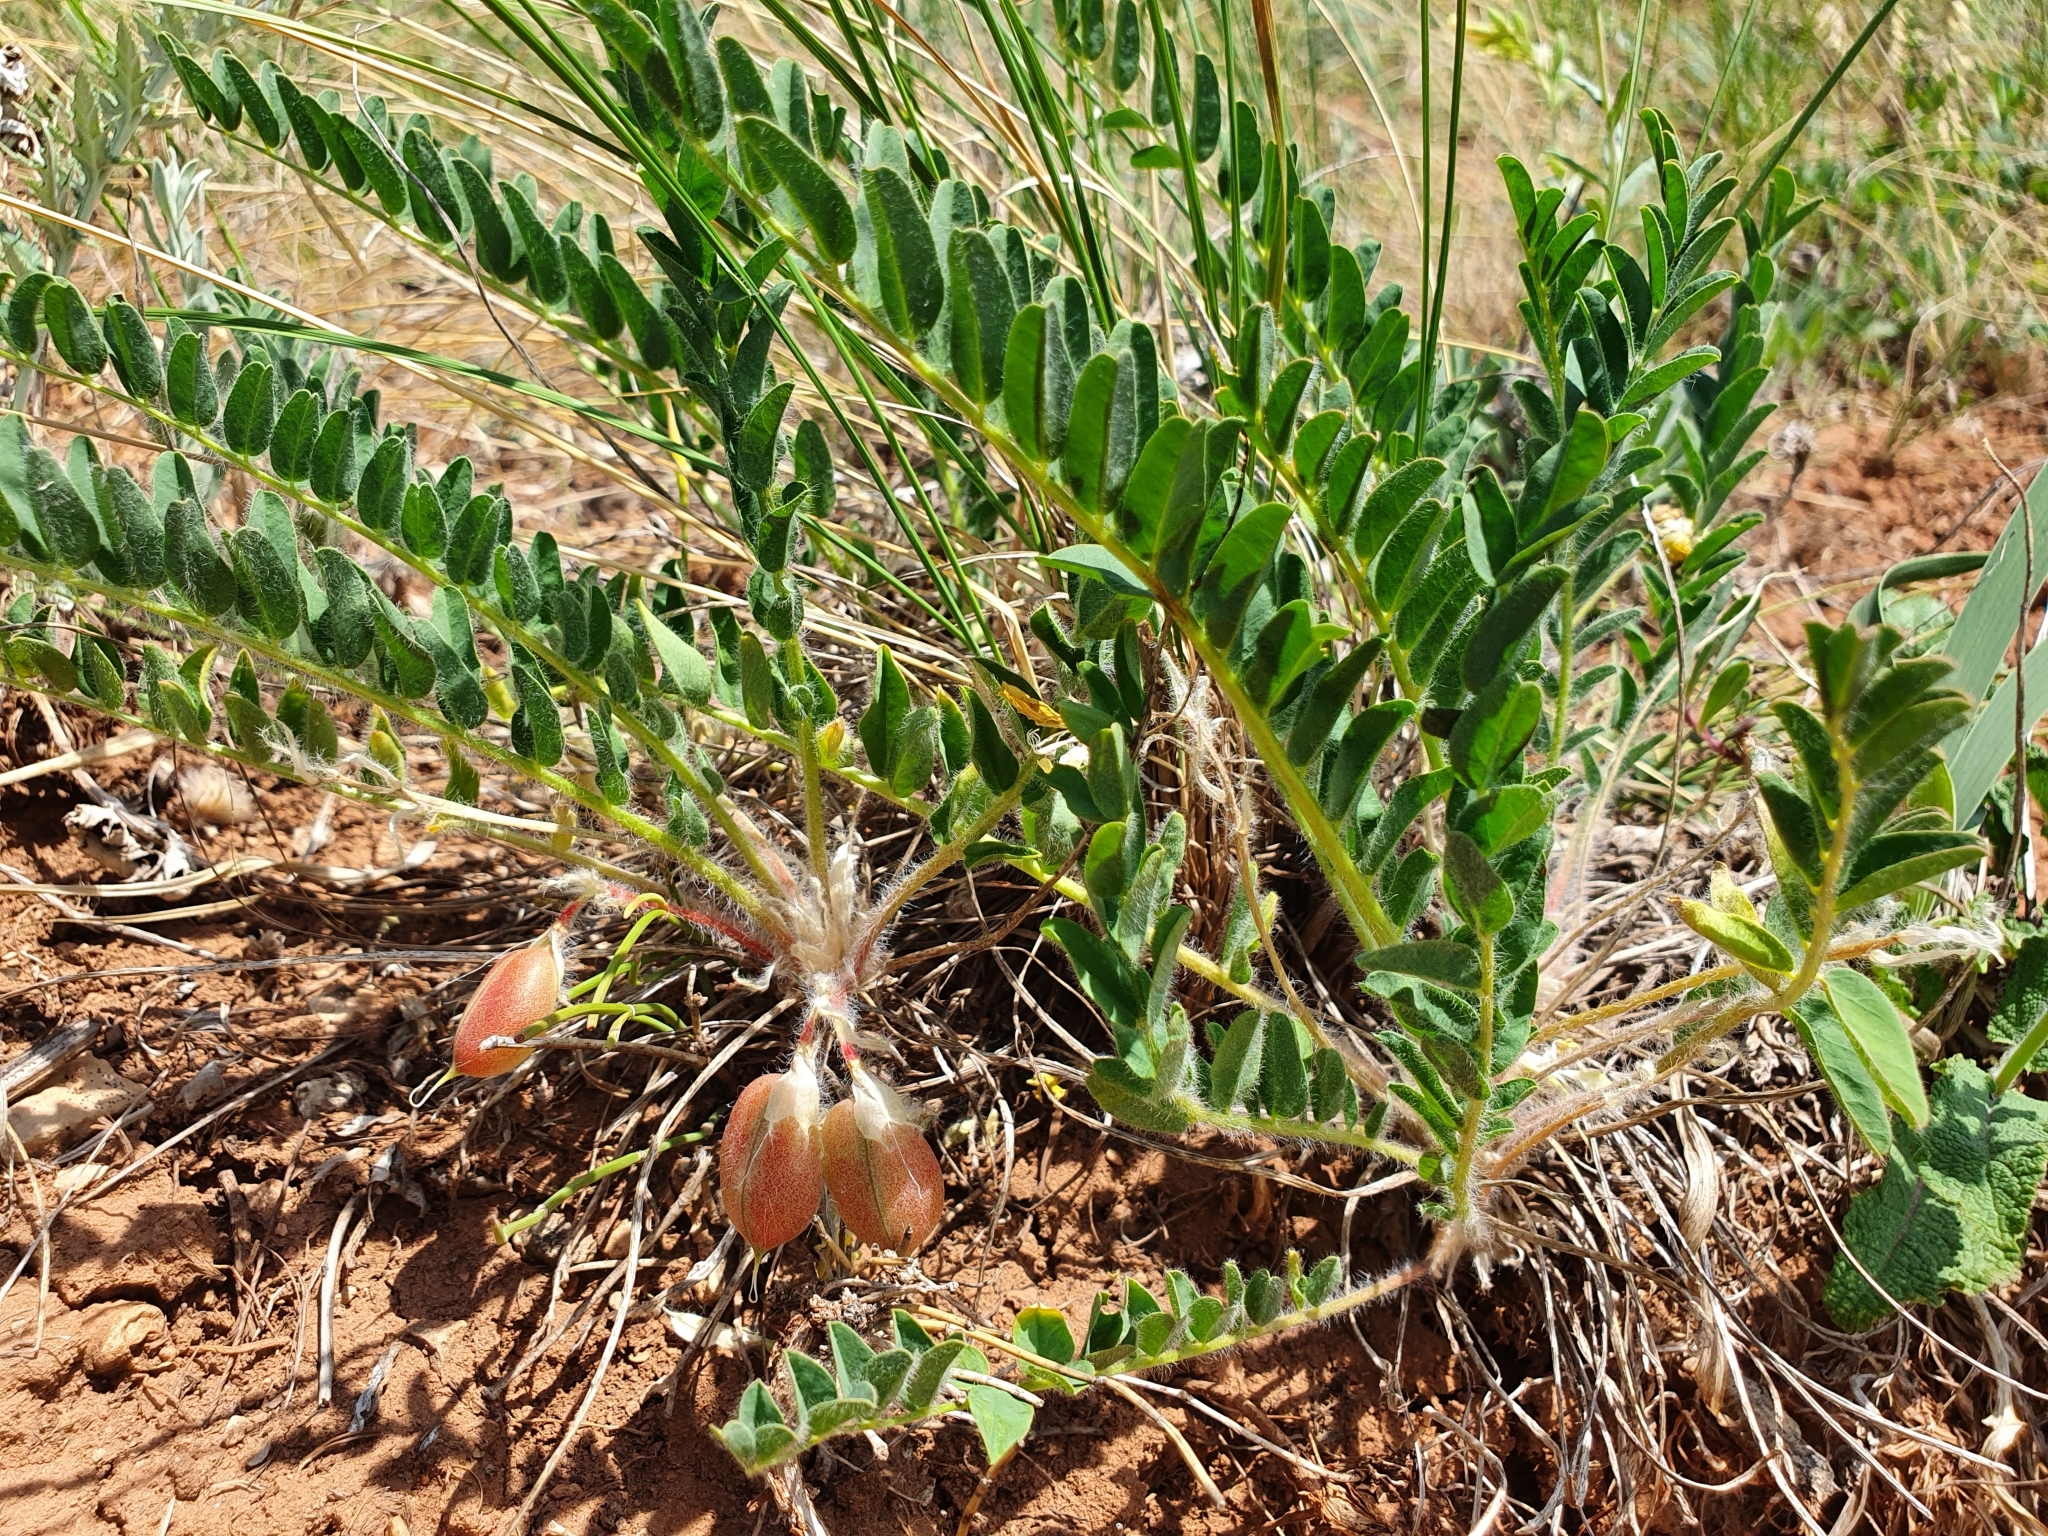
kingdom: Plantae
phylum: Tracheophyta
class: Magnoliopsida
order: Fabales
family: Fabaceae
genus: Astragalus
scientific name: Astragalus buchtormensis
